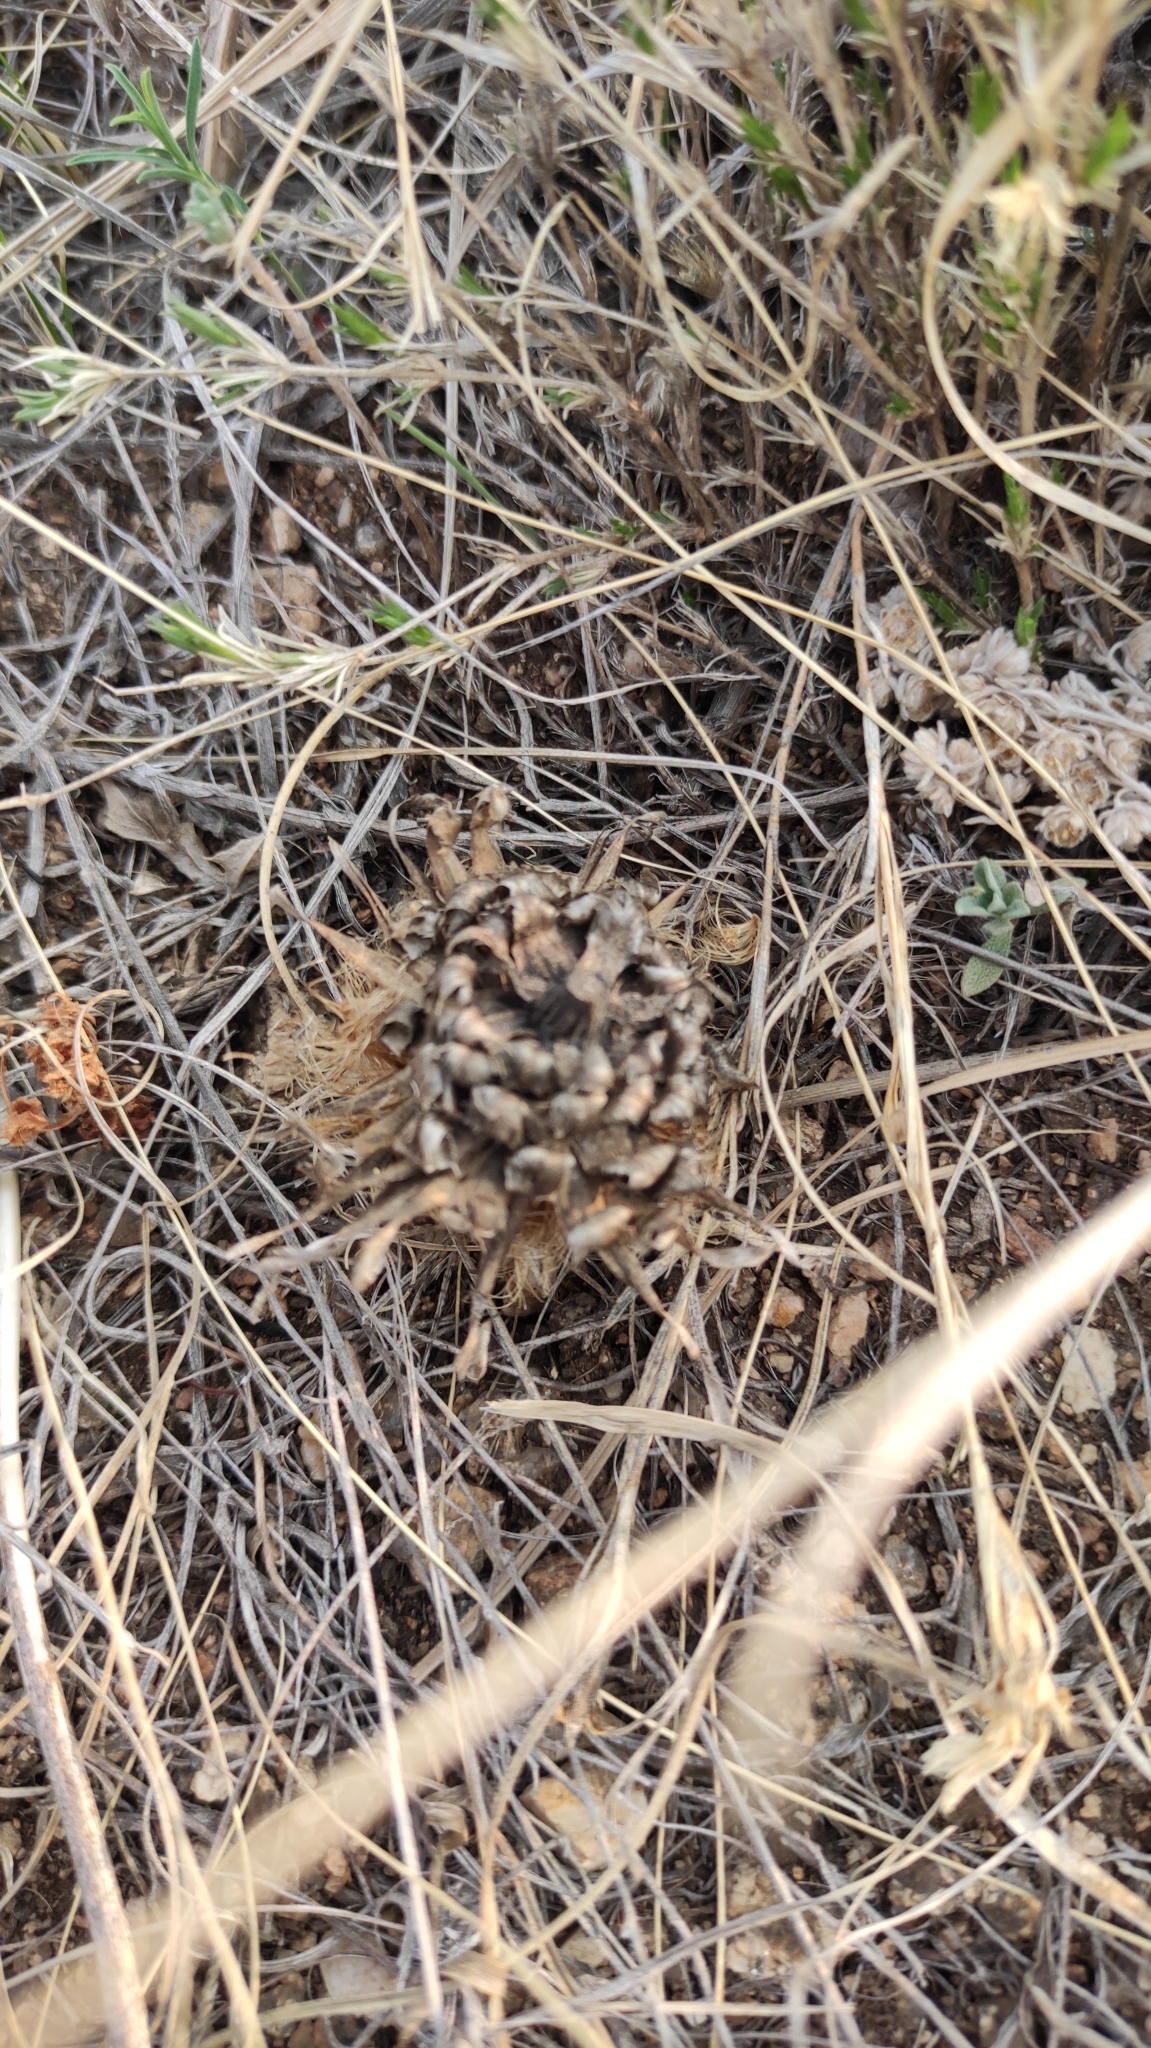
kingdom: Plantae
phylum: Tracheophyta
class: Magnoliopsida
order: Asterales
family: Asteraceae
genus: Leuzea
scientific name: Leuzea uniflora
